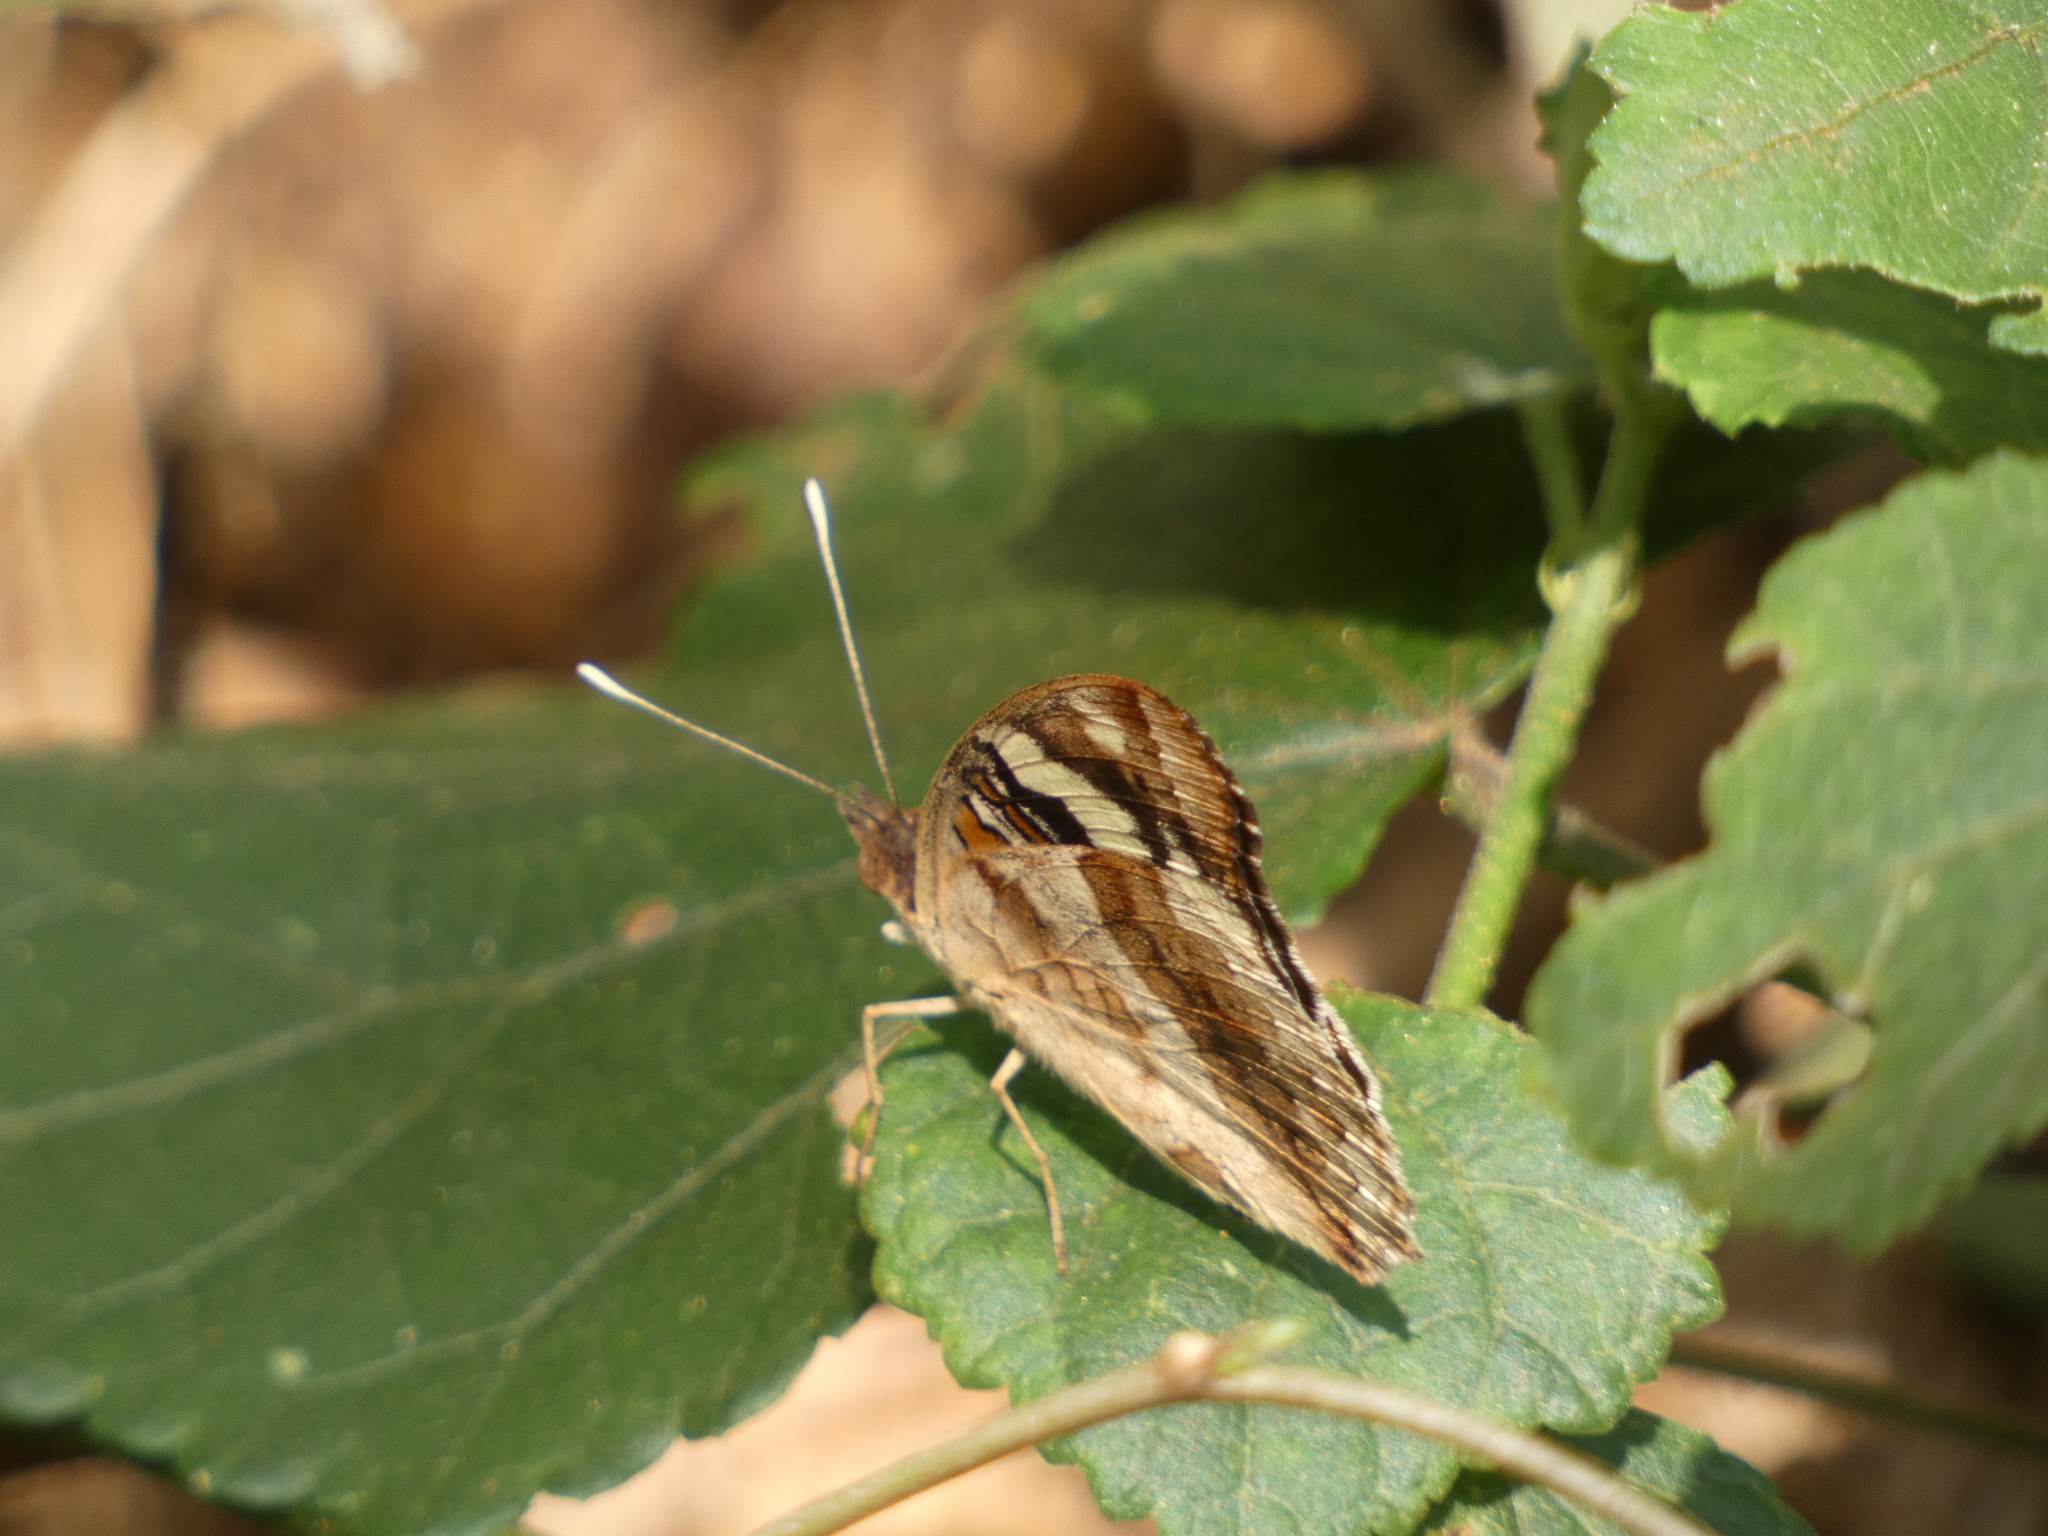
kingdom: Animalia
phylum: Arthropoda
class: Insecta
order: Lepidoptera
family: Nymphalidae
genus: Junonia
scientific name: Junonia oenone
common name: Dark blue pansy
